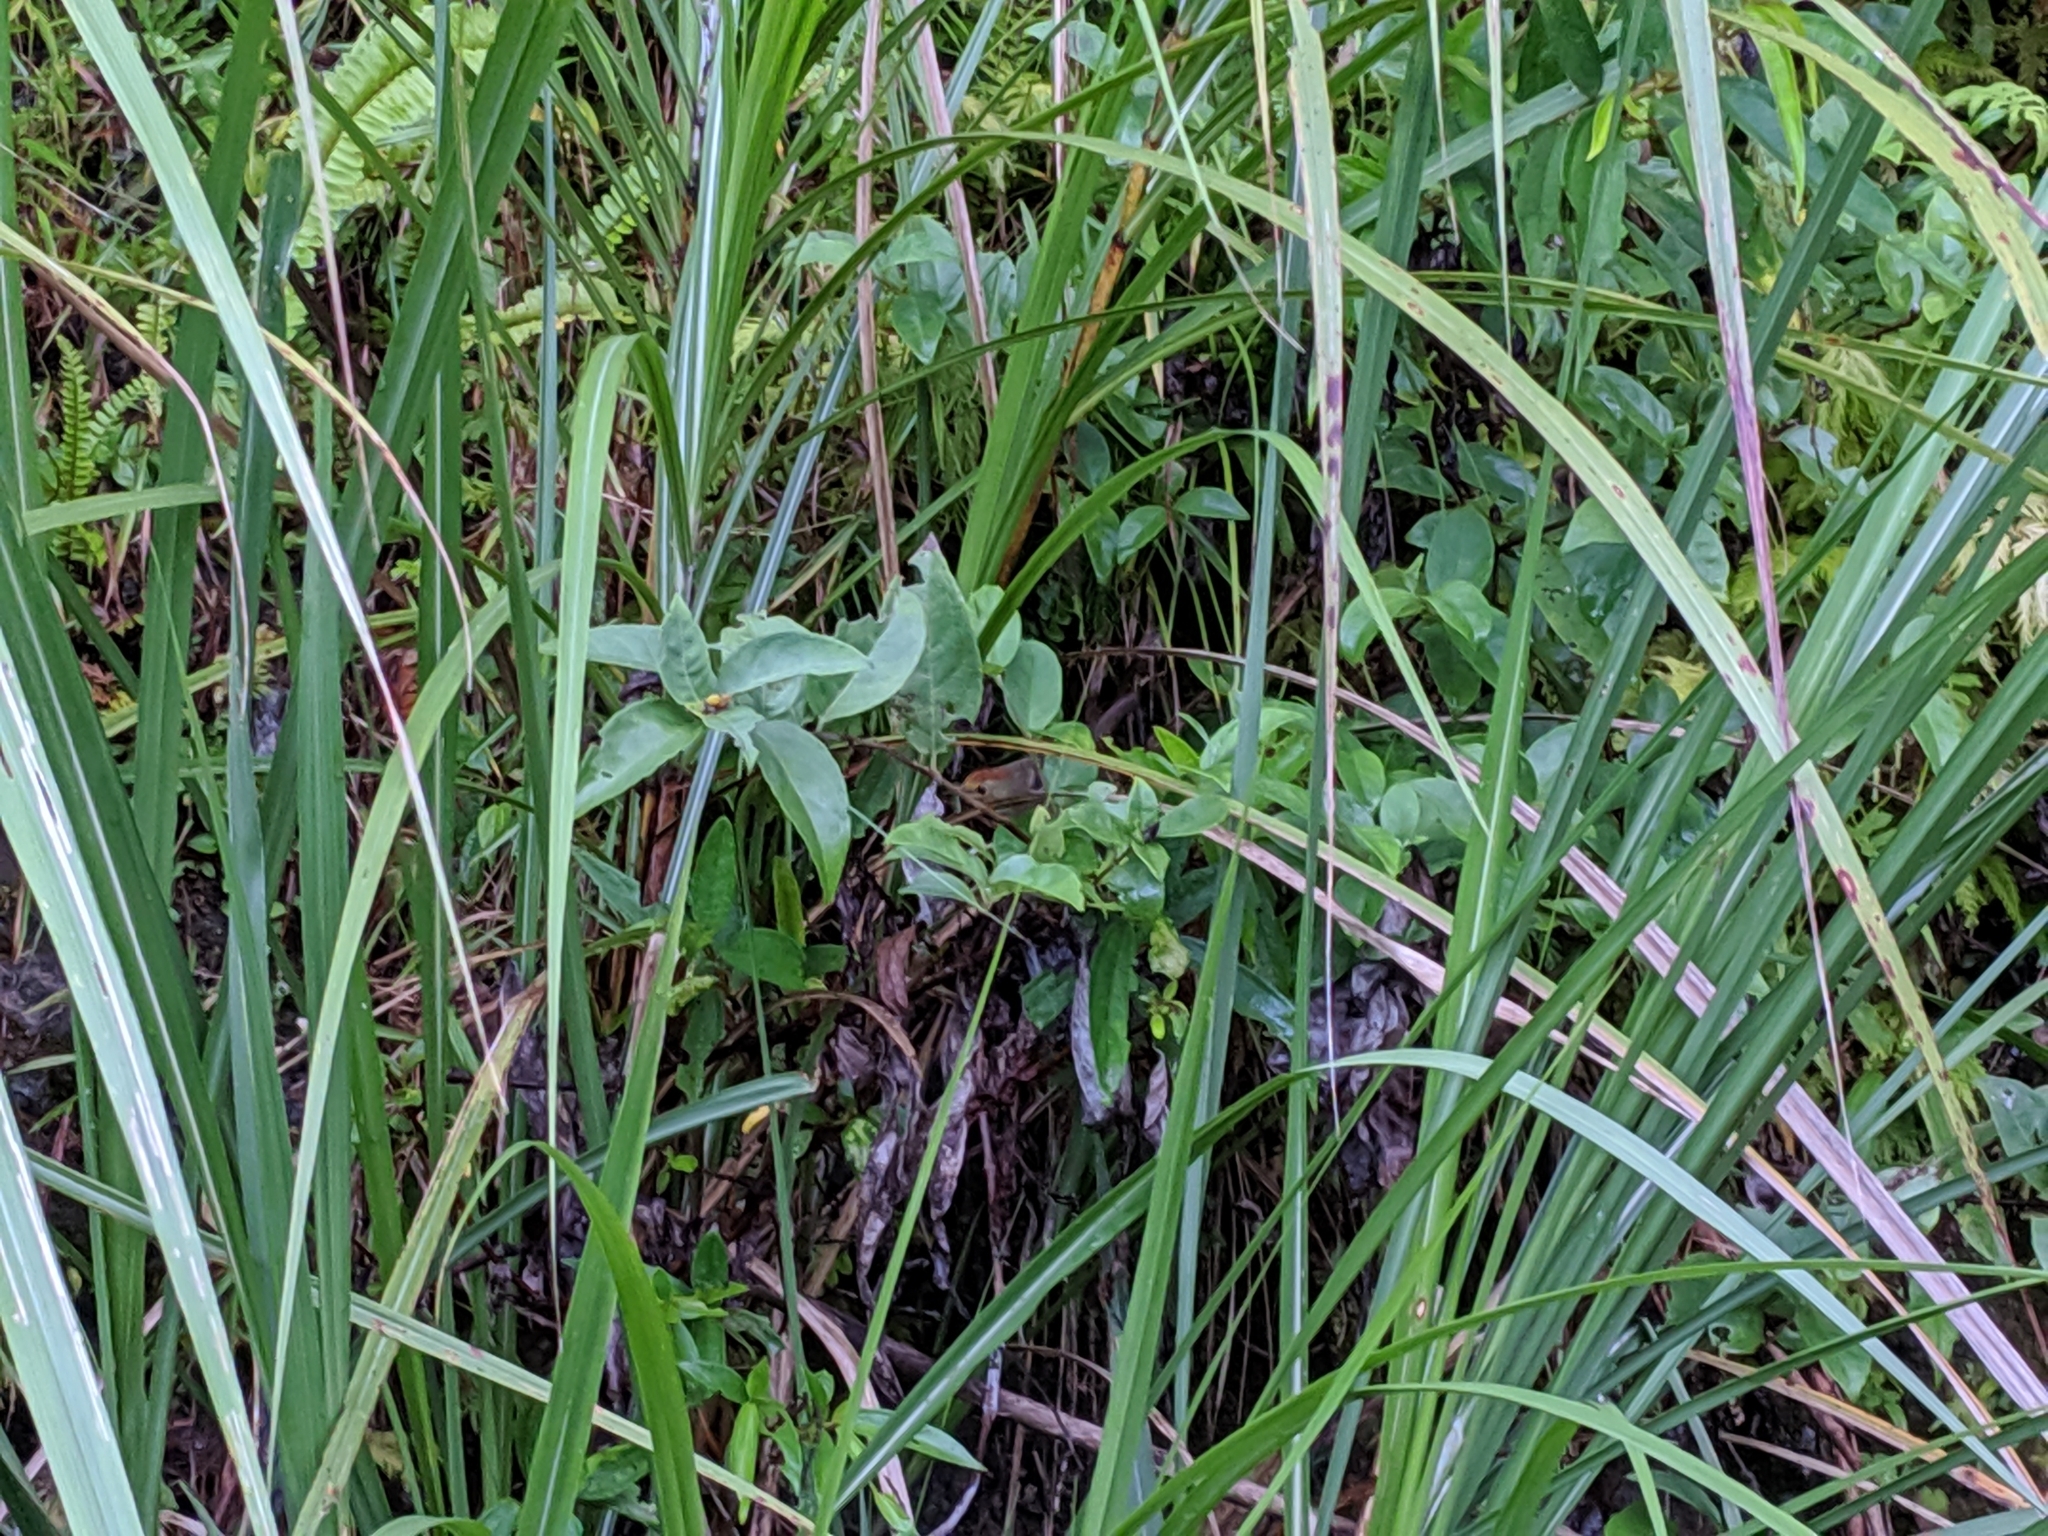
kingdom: Animalia
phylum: Chordata
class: Aves
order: Passeriformes
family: Timaliidae
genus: Stachyridopsis
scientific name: Stachyridopsis ruficeps
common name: Rufous-capped babbler
